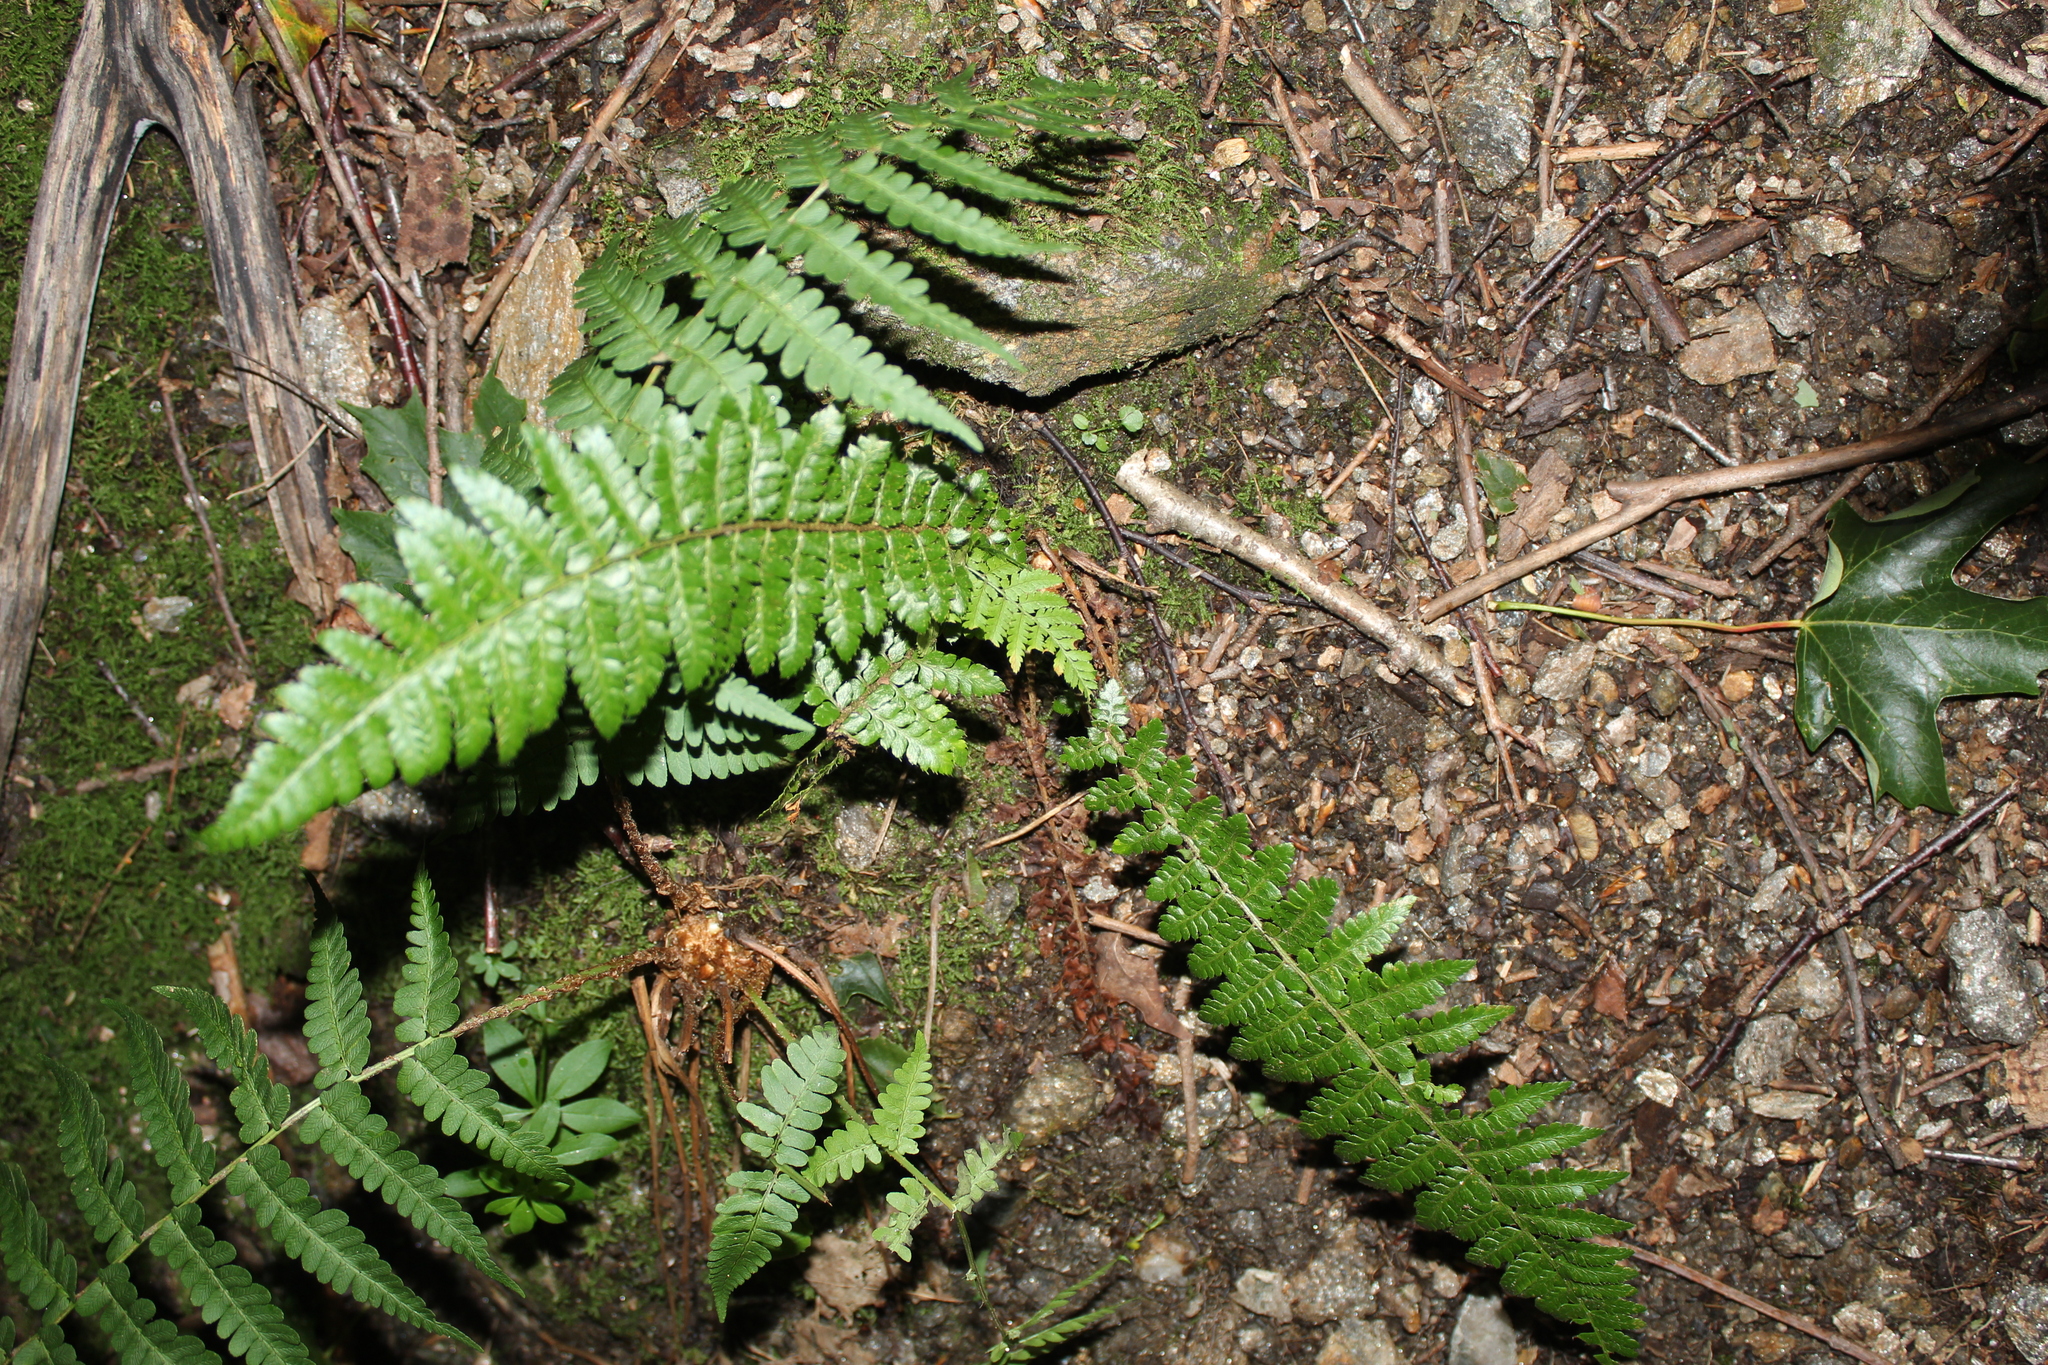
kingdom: Plantae
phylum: Tracheophyta
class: Polypodiopsida
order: Polypodiales
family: Dryopteridaceae
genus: Polystichum
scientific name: Polystichum braunii
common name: Braun's holly fern
